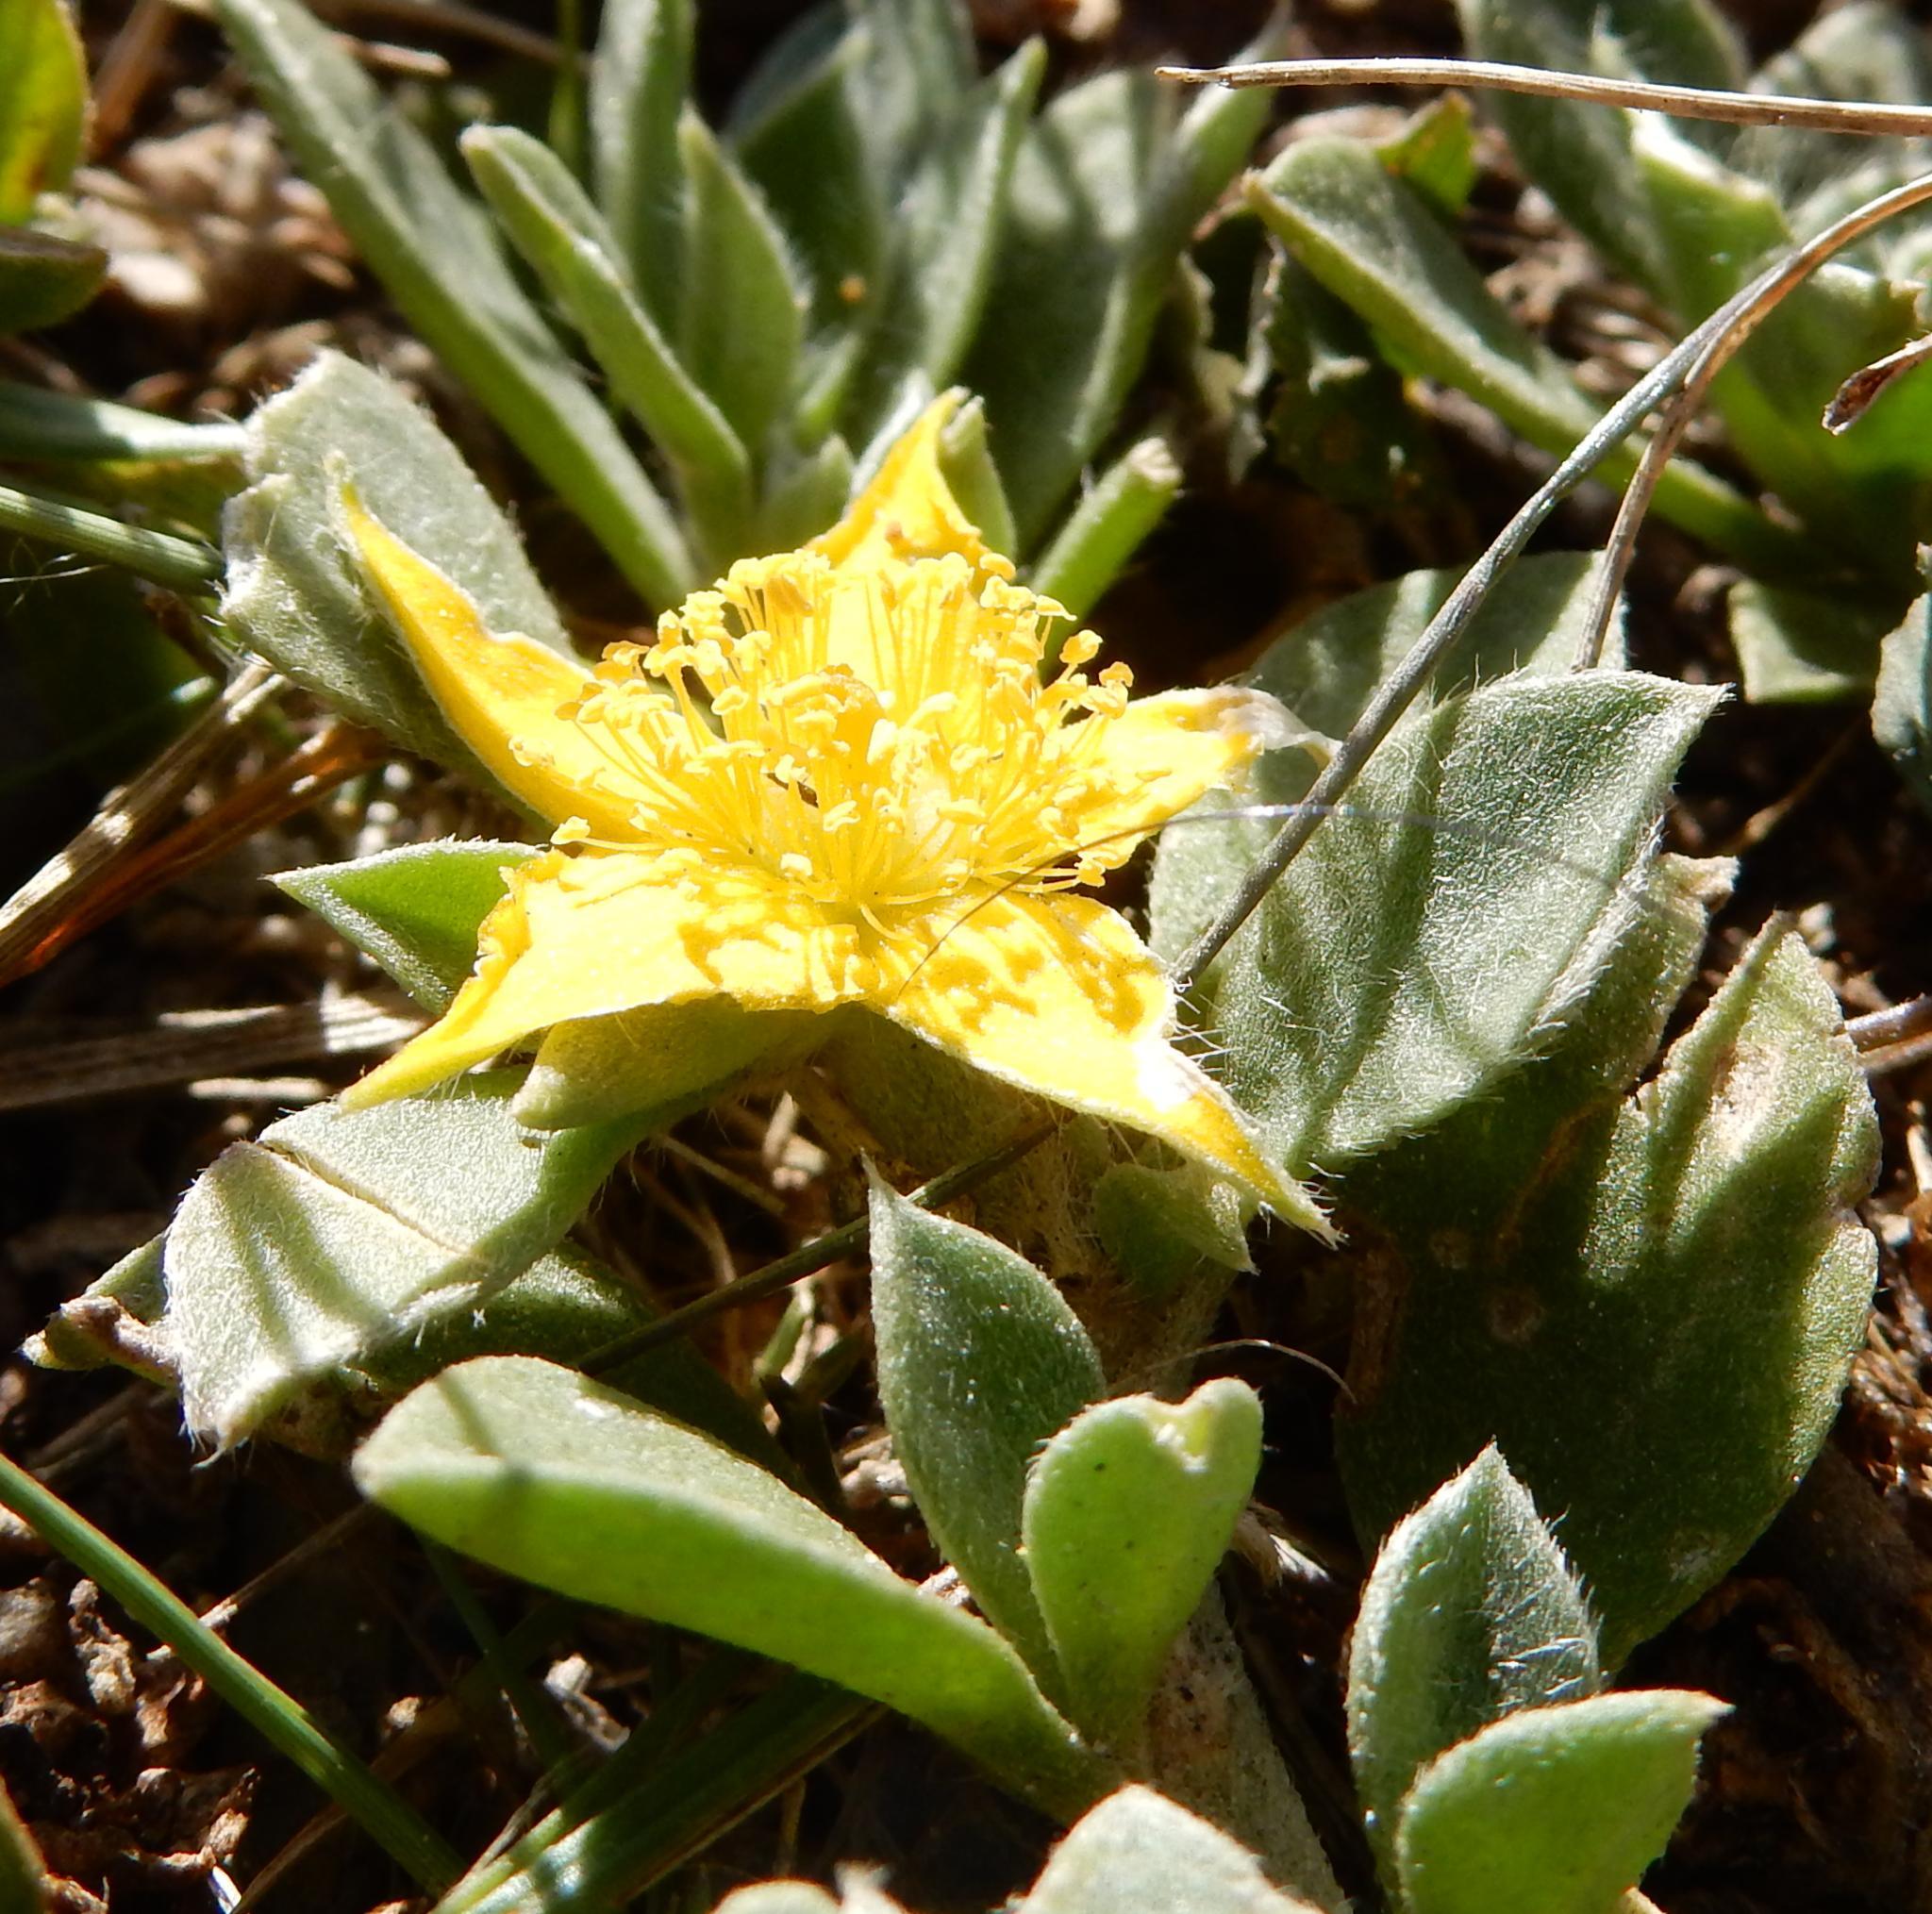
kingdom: Plantae
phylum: Tracheophyta
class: Magnoliopsida
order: Caryophyllales
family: Aizoaceae
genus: Aizoon
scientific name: Aizoon glinoides
